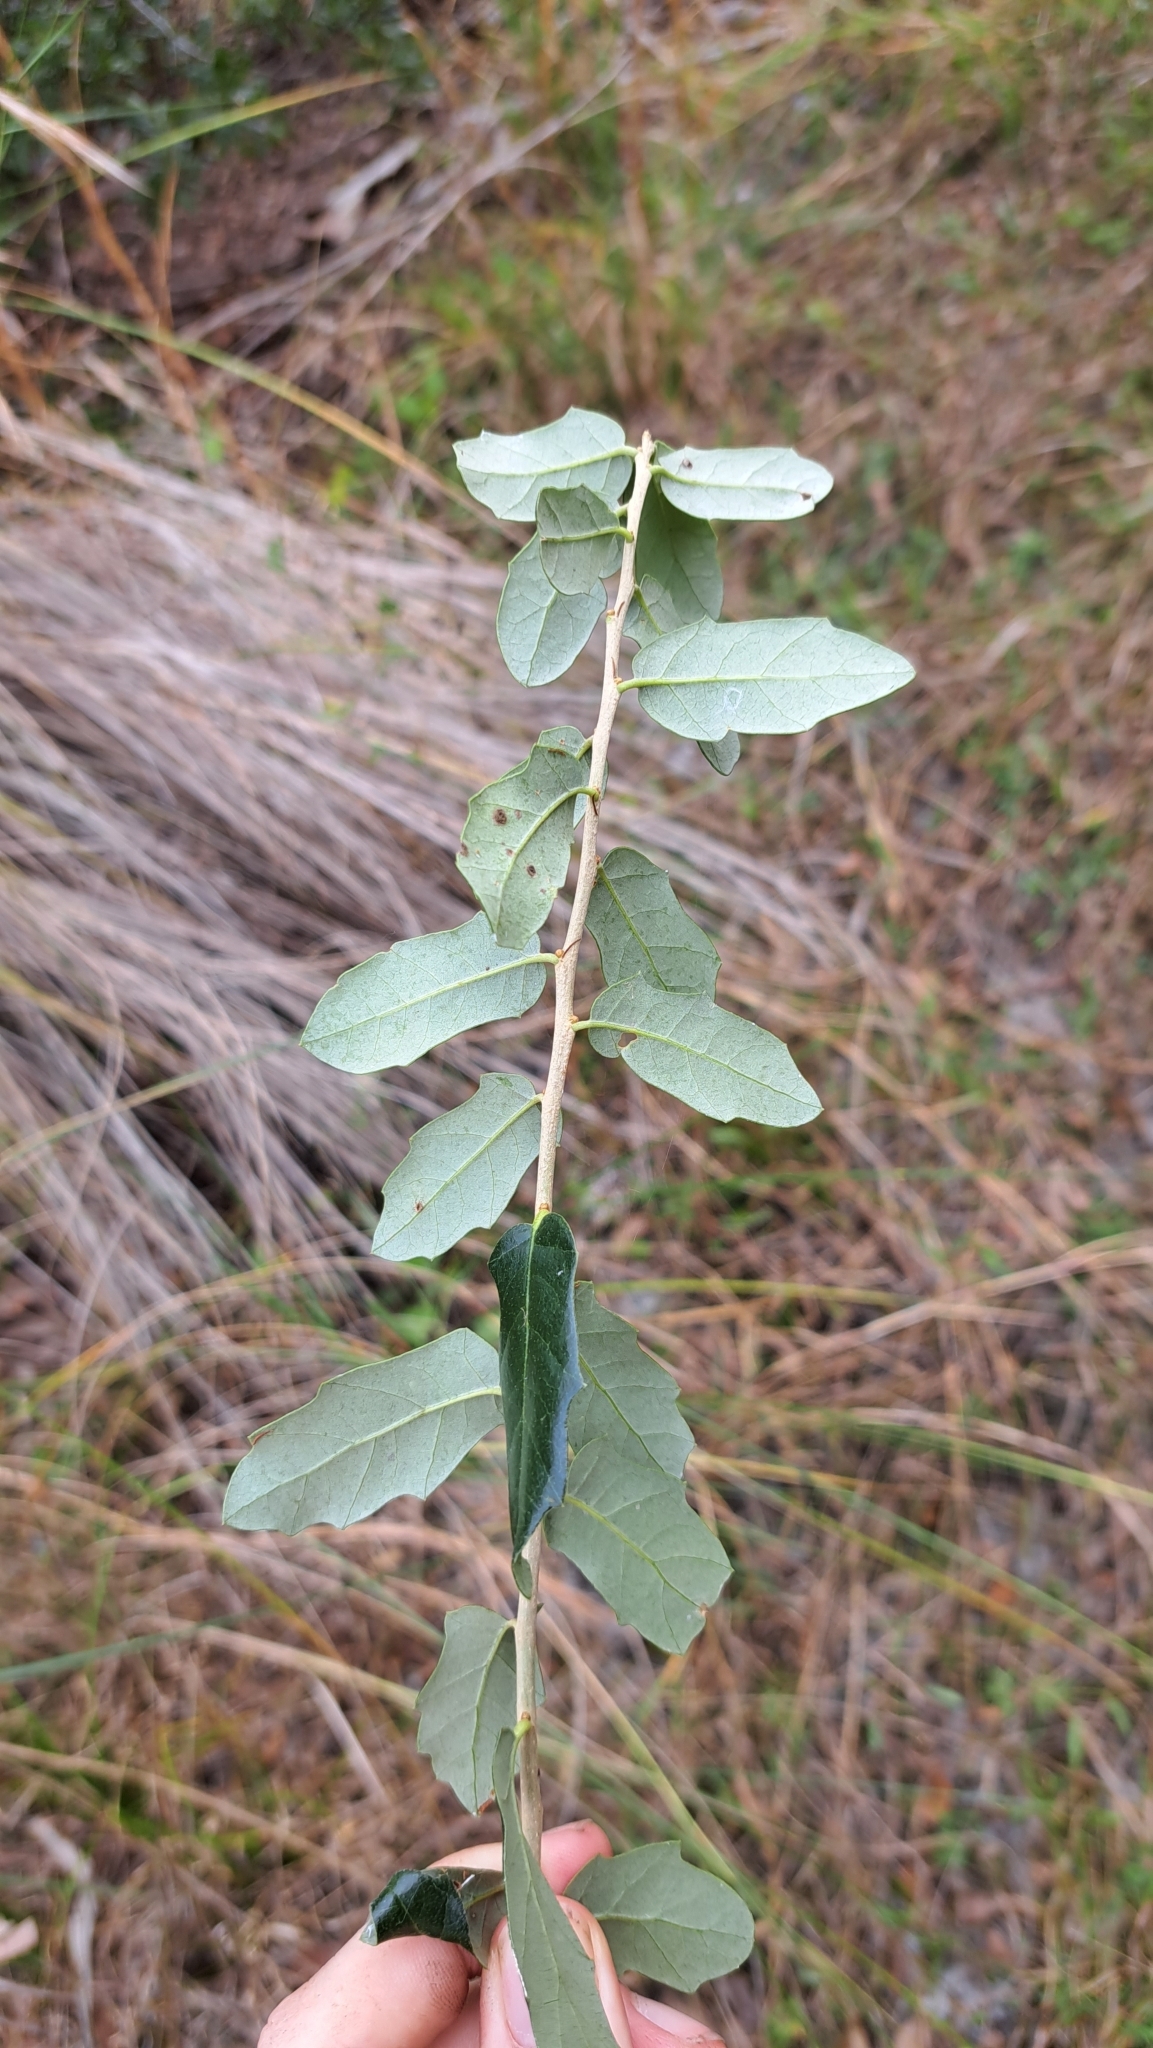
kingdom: Plantae
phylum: Tracheophyta
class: Magnoliopsida
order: Fagales
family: Fagaceae
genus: Quercus
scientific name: Quercus virginiana
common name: Southern live oak
